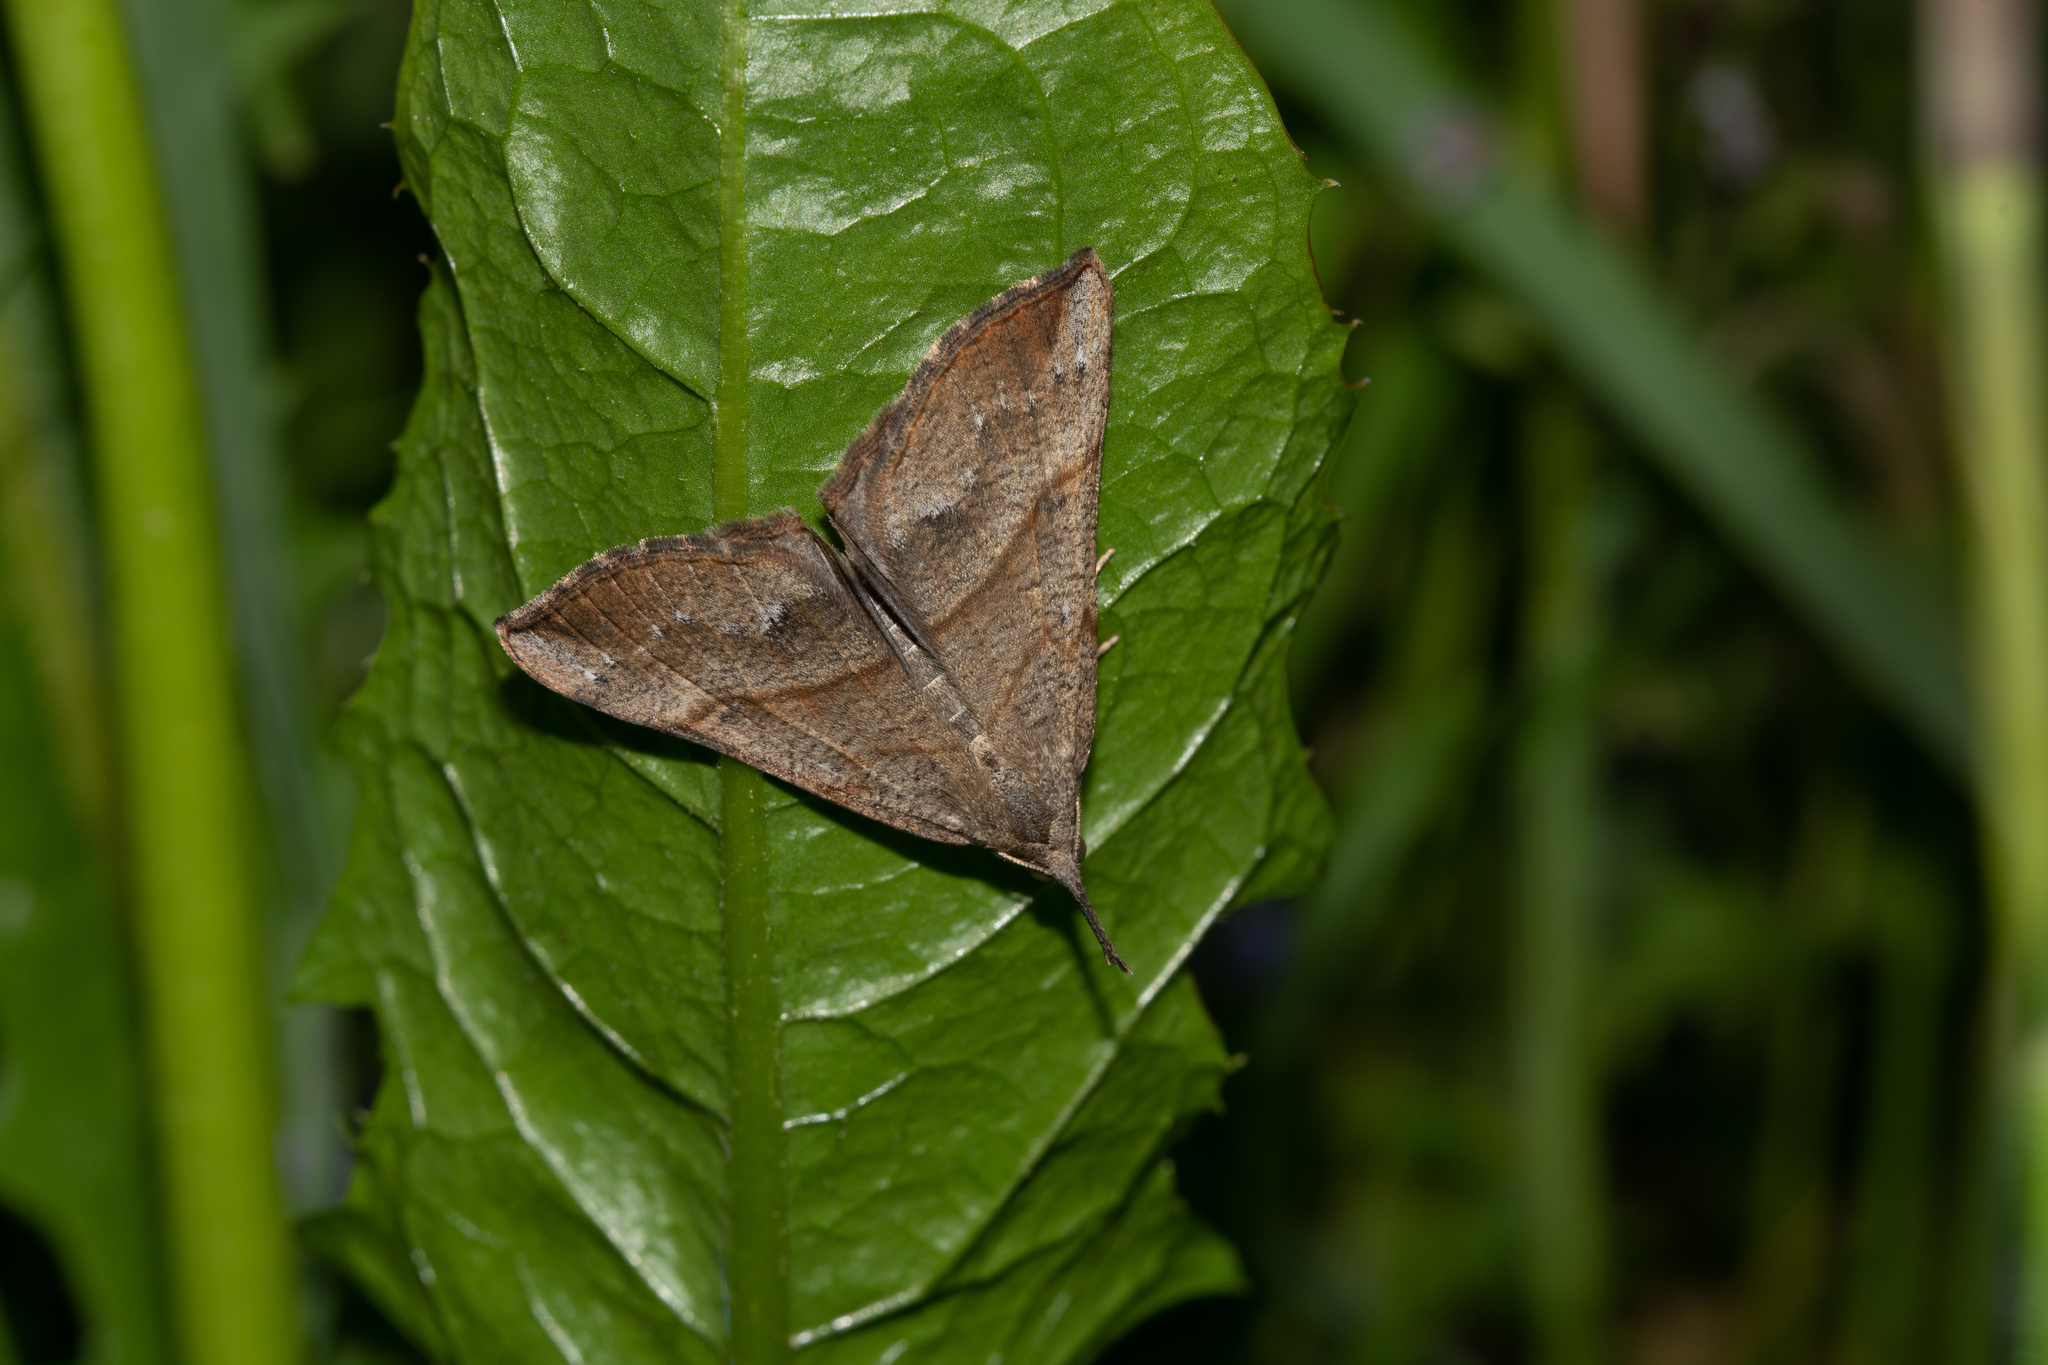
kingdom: Animalia
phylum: Arthropoda
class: Insecta
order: Lepidoptera
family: Erebidae
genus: Hypena
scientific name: Hypena proboscidalis
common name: Snout
